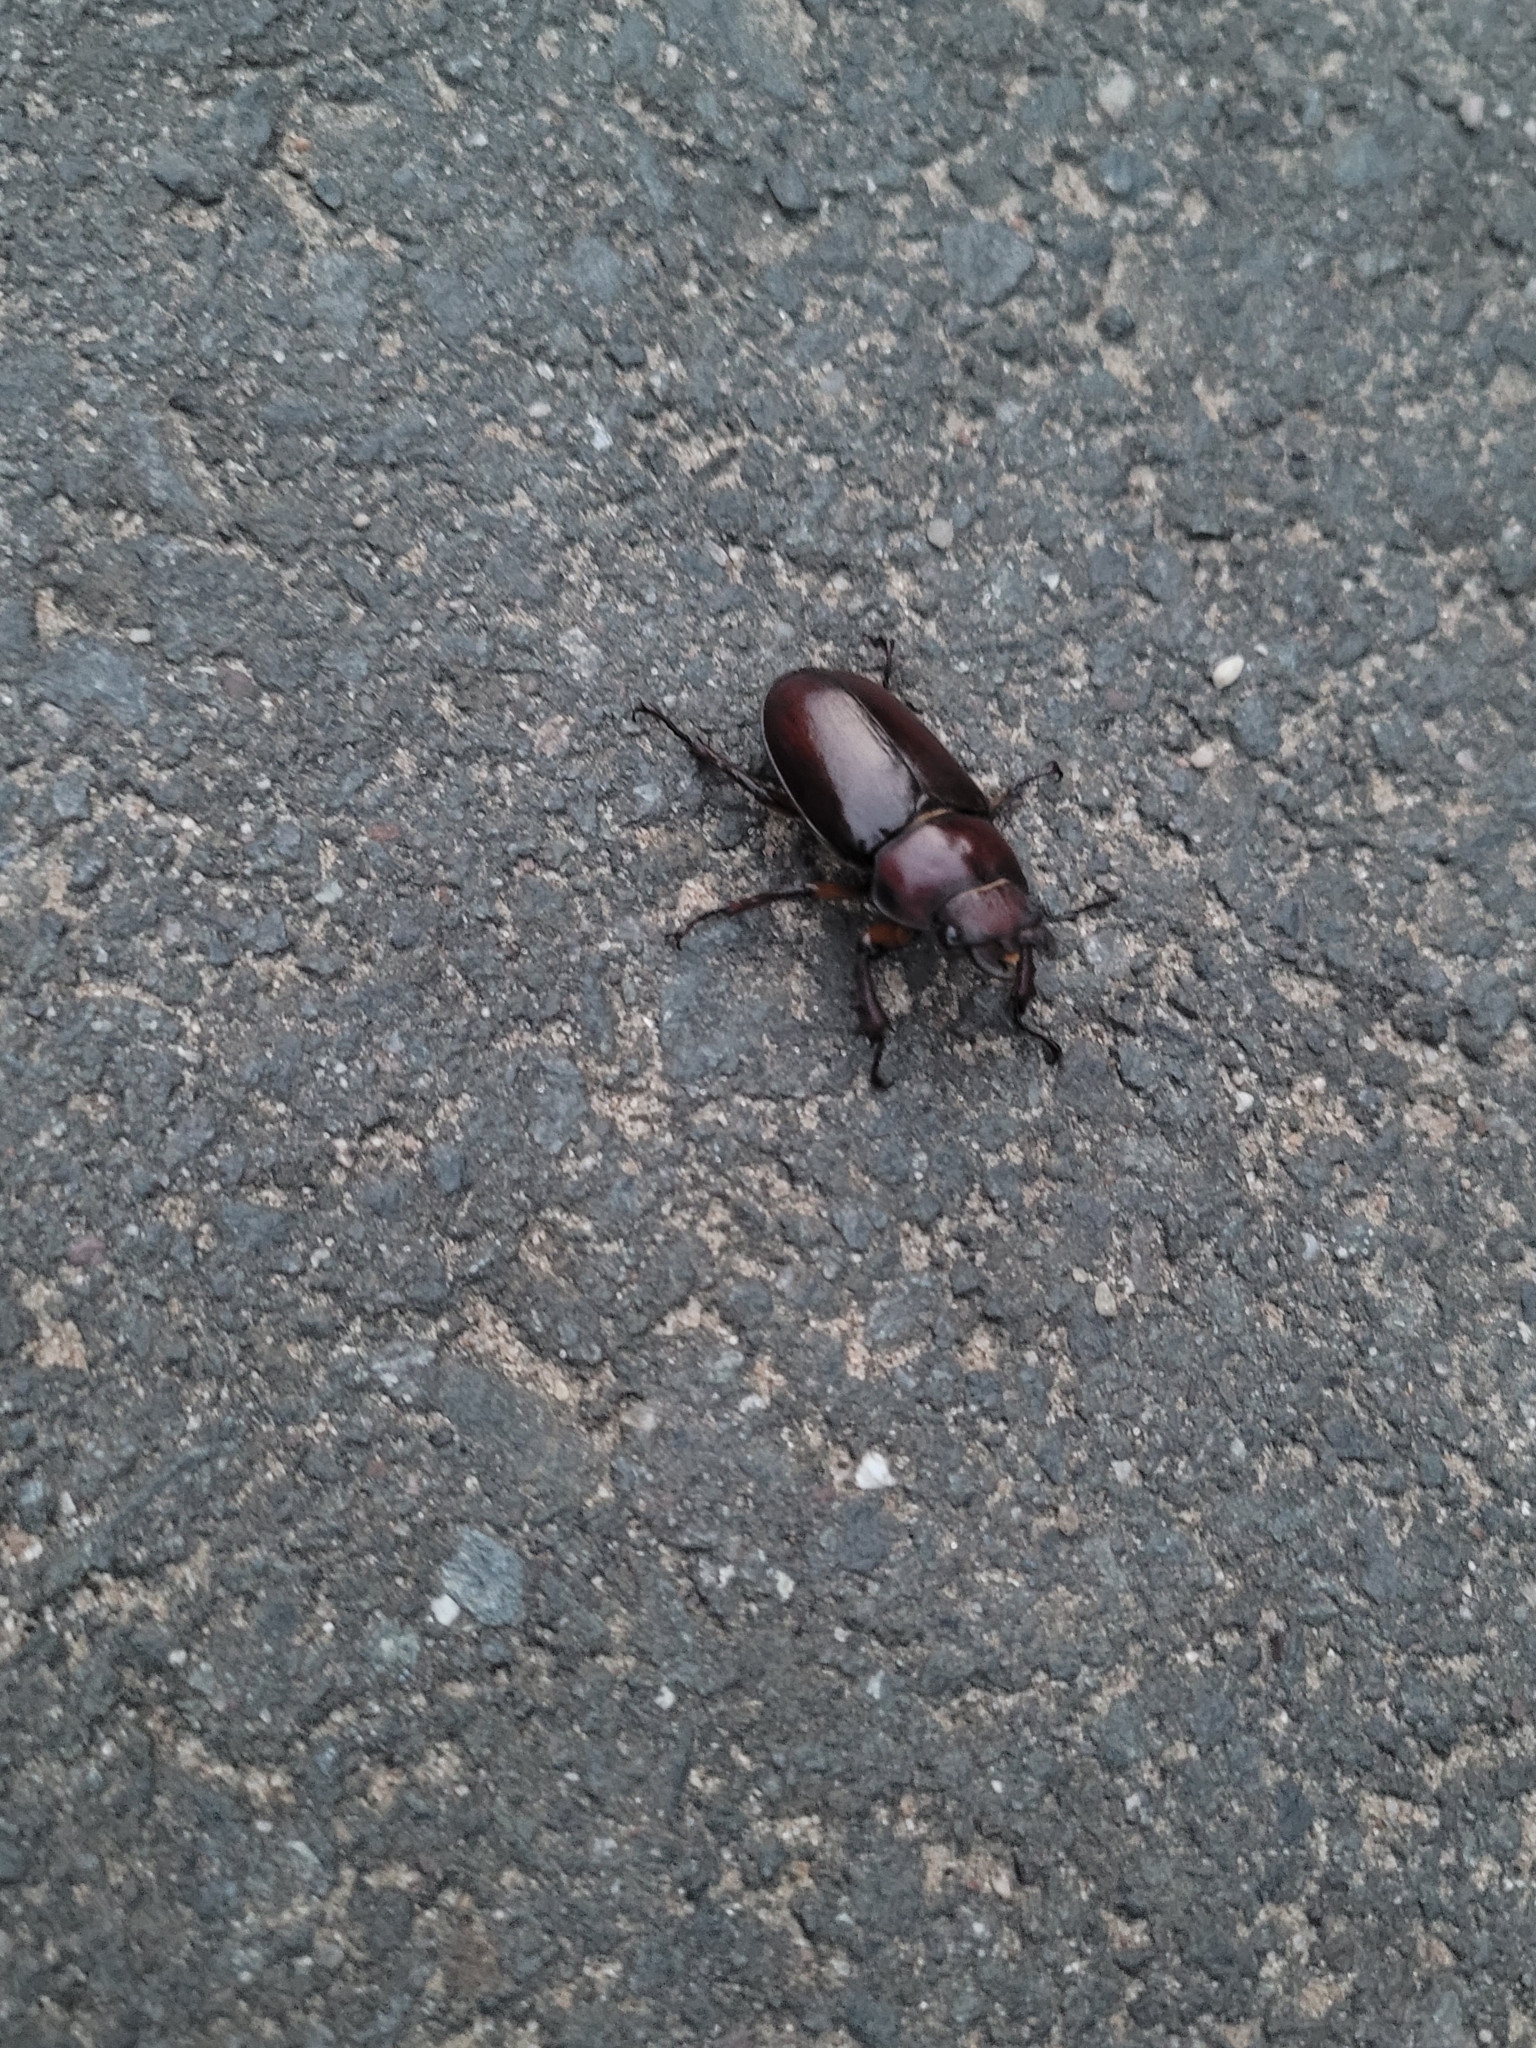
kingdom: Animalia
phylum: Arthropoda
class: Insecta
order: Coleoptera
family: Lucanidae
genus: Lucanus
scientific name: Lucanus capreolus
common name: Stag beetle
